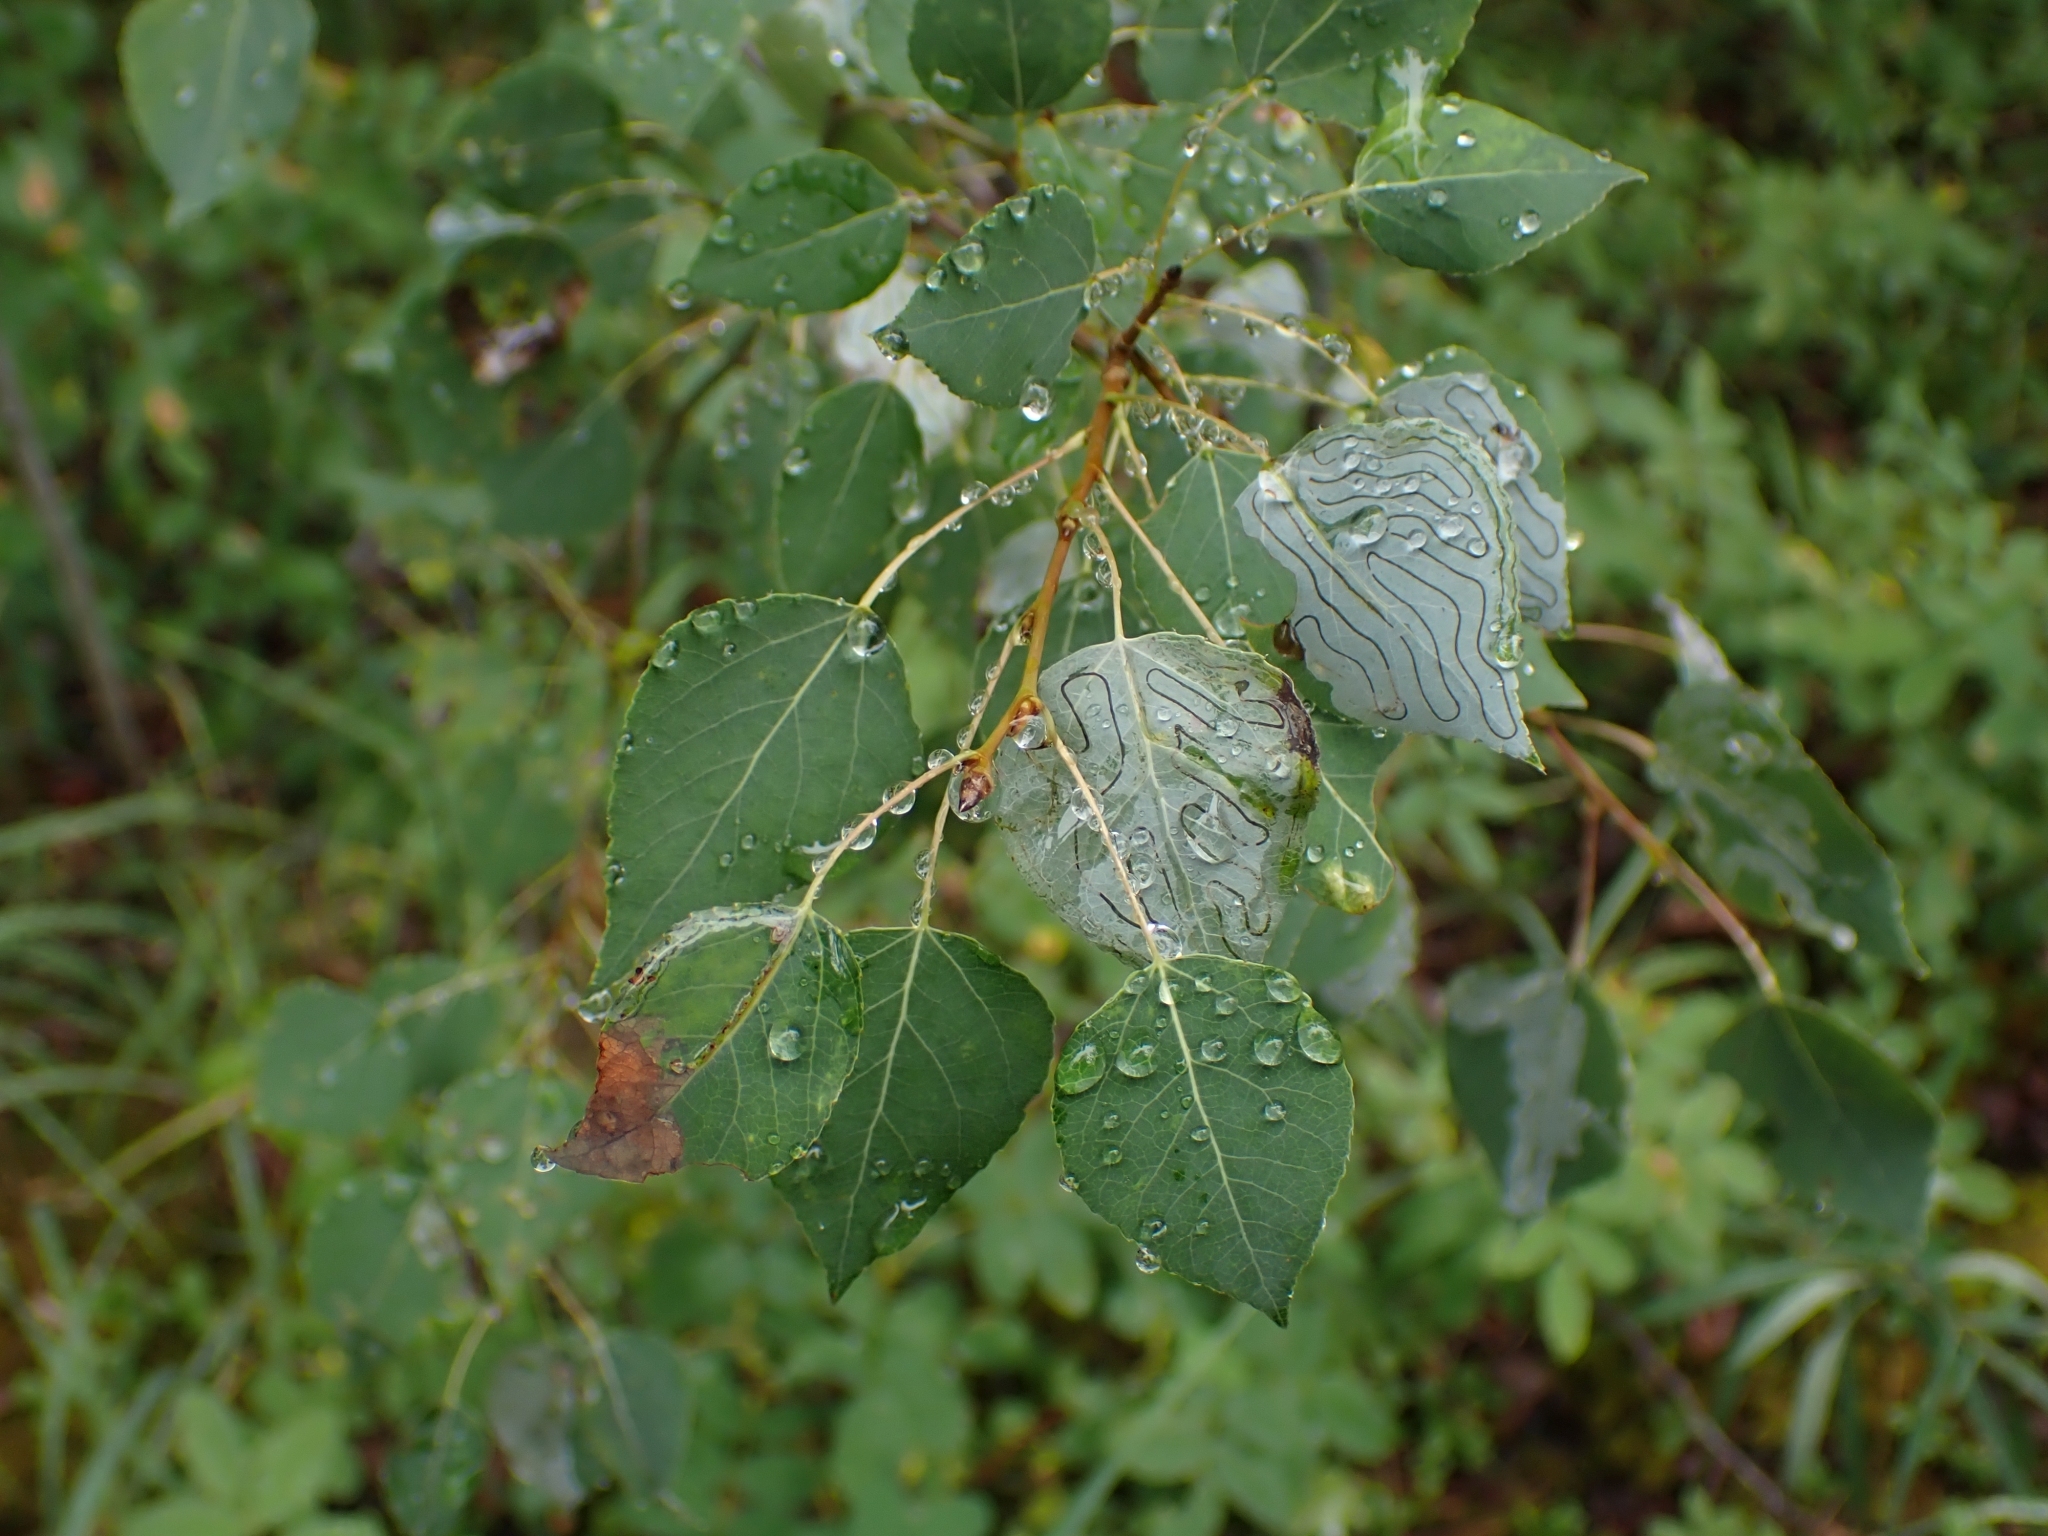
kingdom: Plantae
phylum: Tracheophyta
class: Magnoliopsida
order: Malpighiales
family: Salicaceae
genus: Populus
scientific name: Populus tremuloides
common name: Quaking aspen
